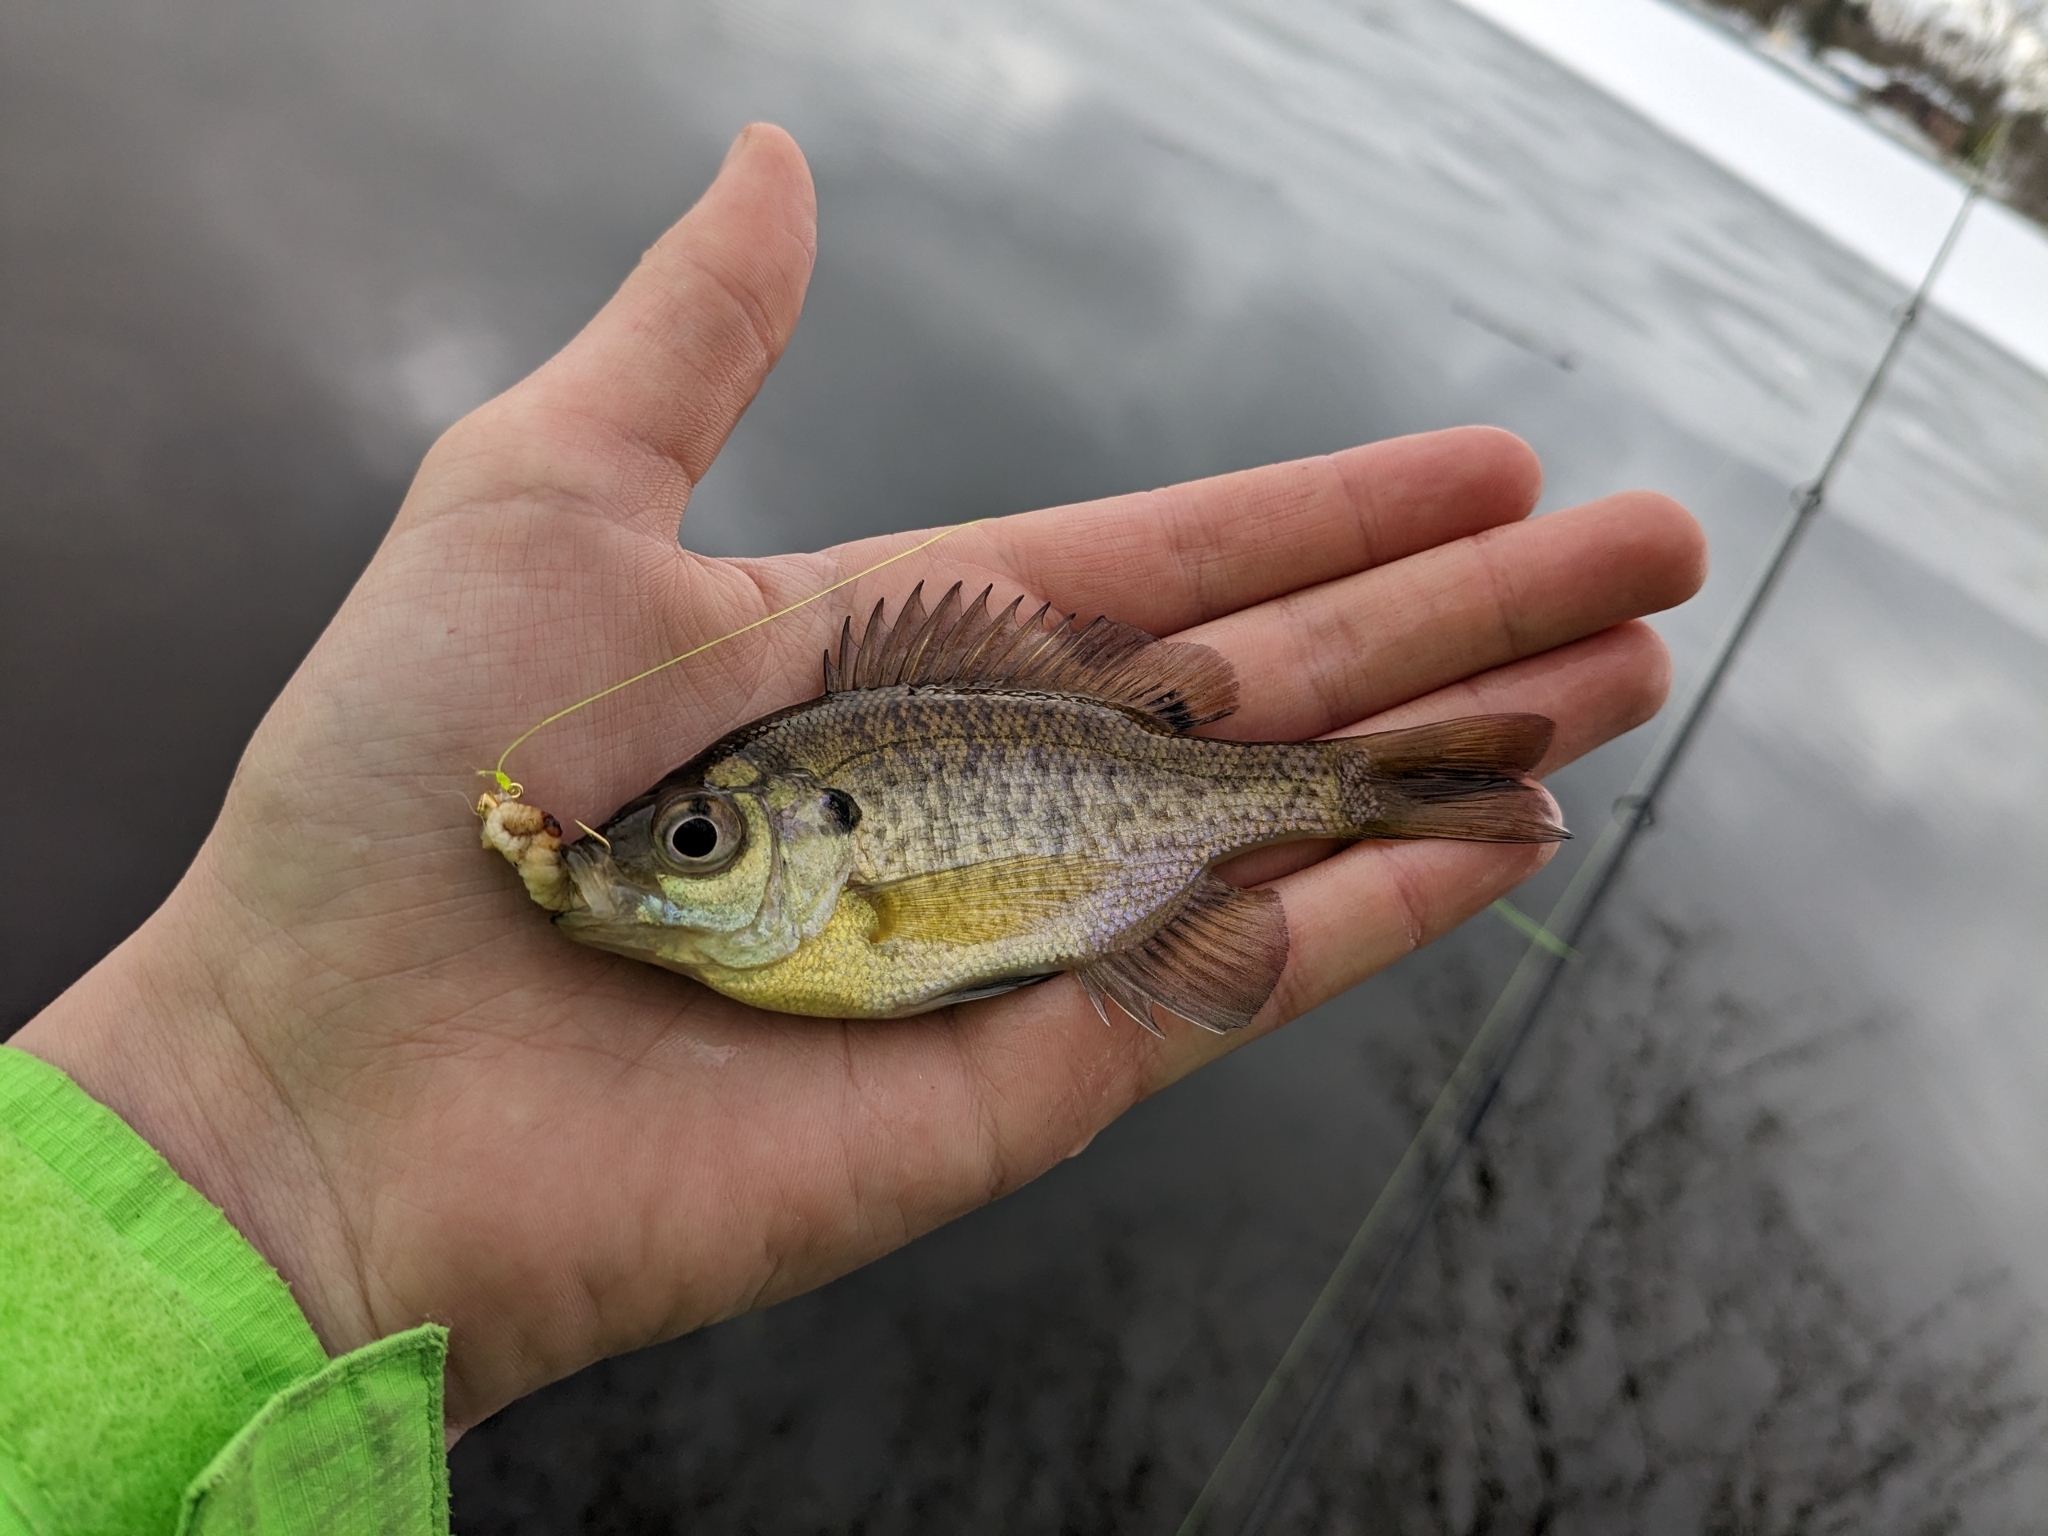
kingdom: Animalia
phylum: Chordata
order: Perciformes
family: Centrarchidae
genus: Lepomis
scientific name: Lepomis macrochirus
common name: Bluegill
